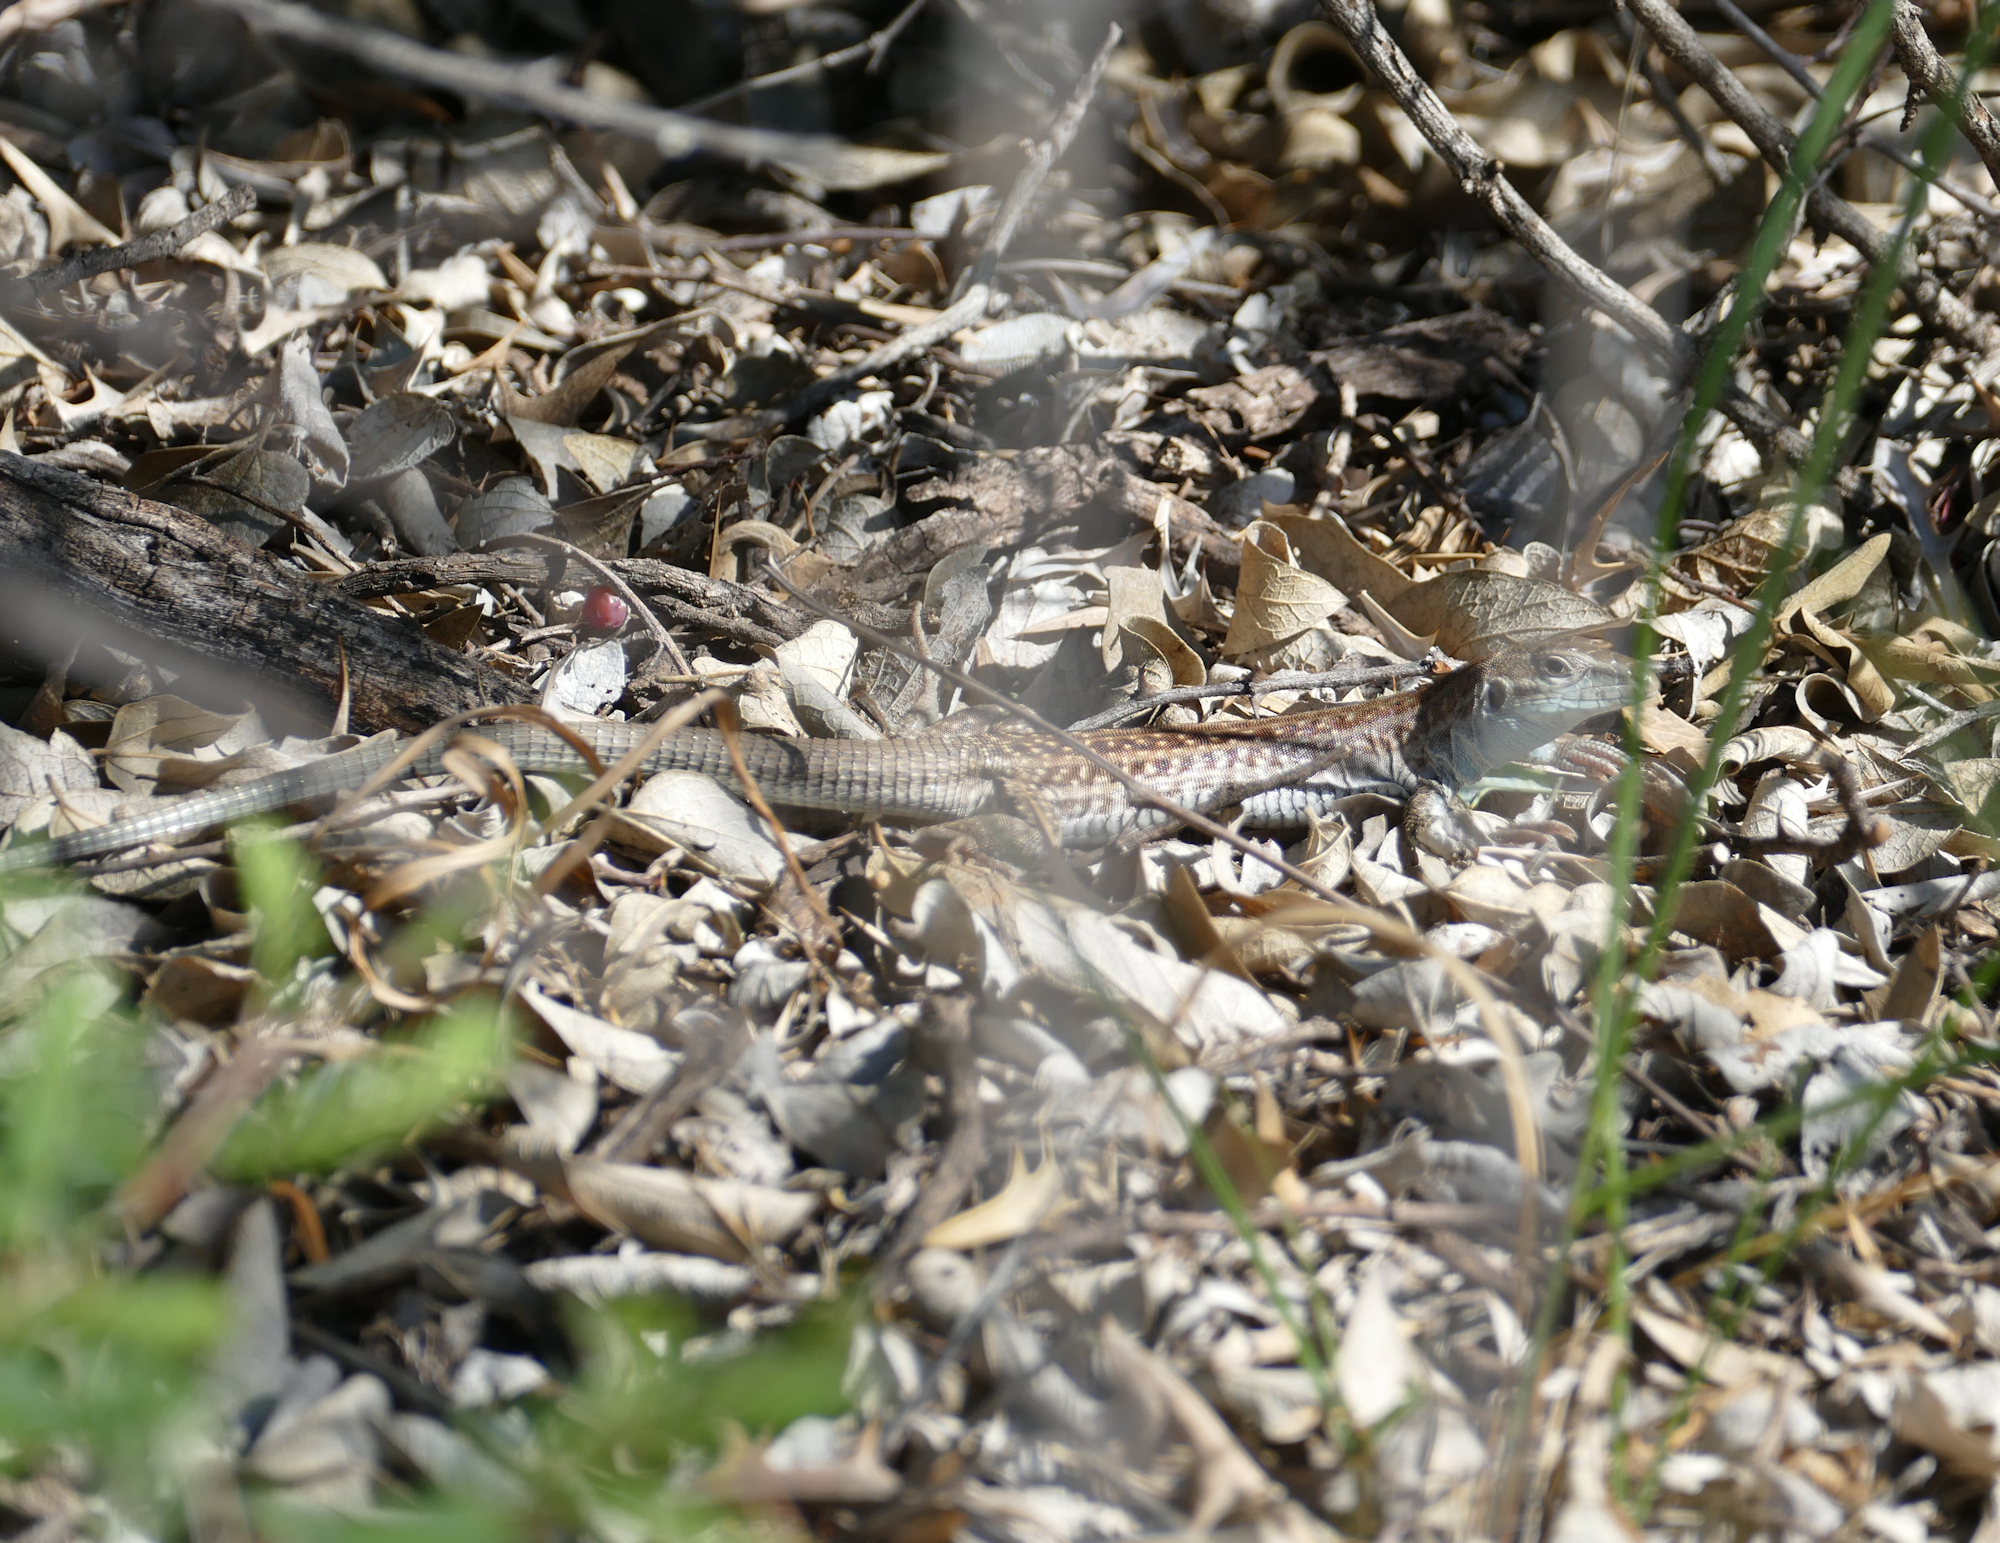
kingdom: Animalia
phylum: Chordata
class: Squamata
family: Teiidae
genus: Aspidoscelis
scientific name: Aspidoscelis exsanguis
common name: Chihuahuan spotted whiptail
